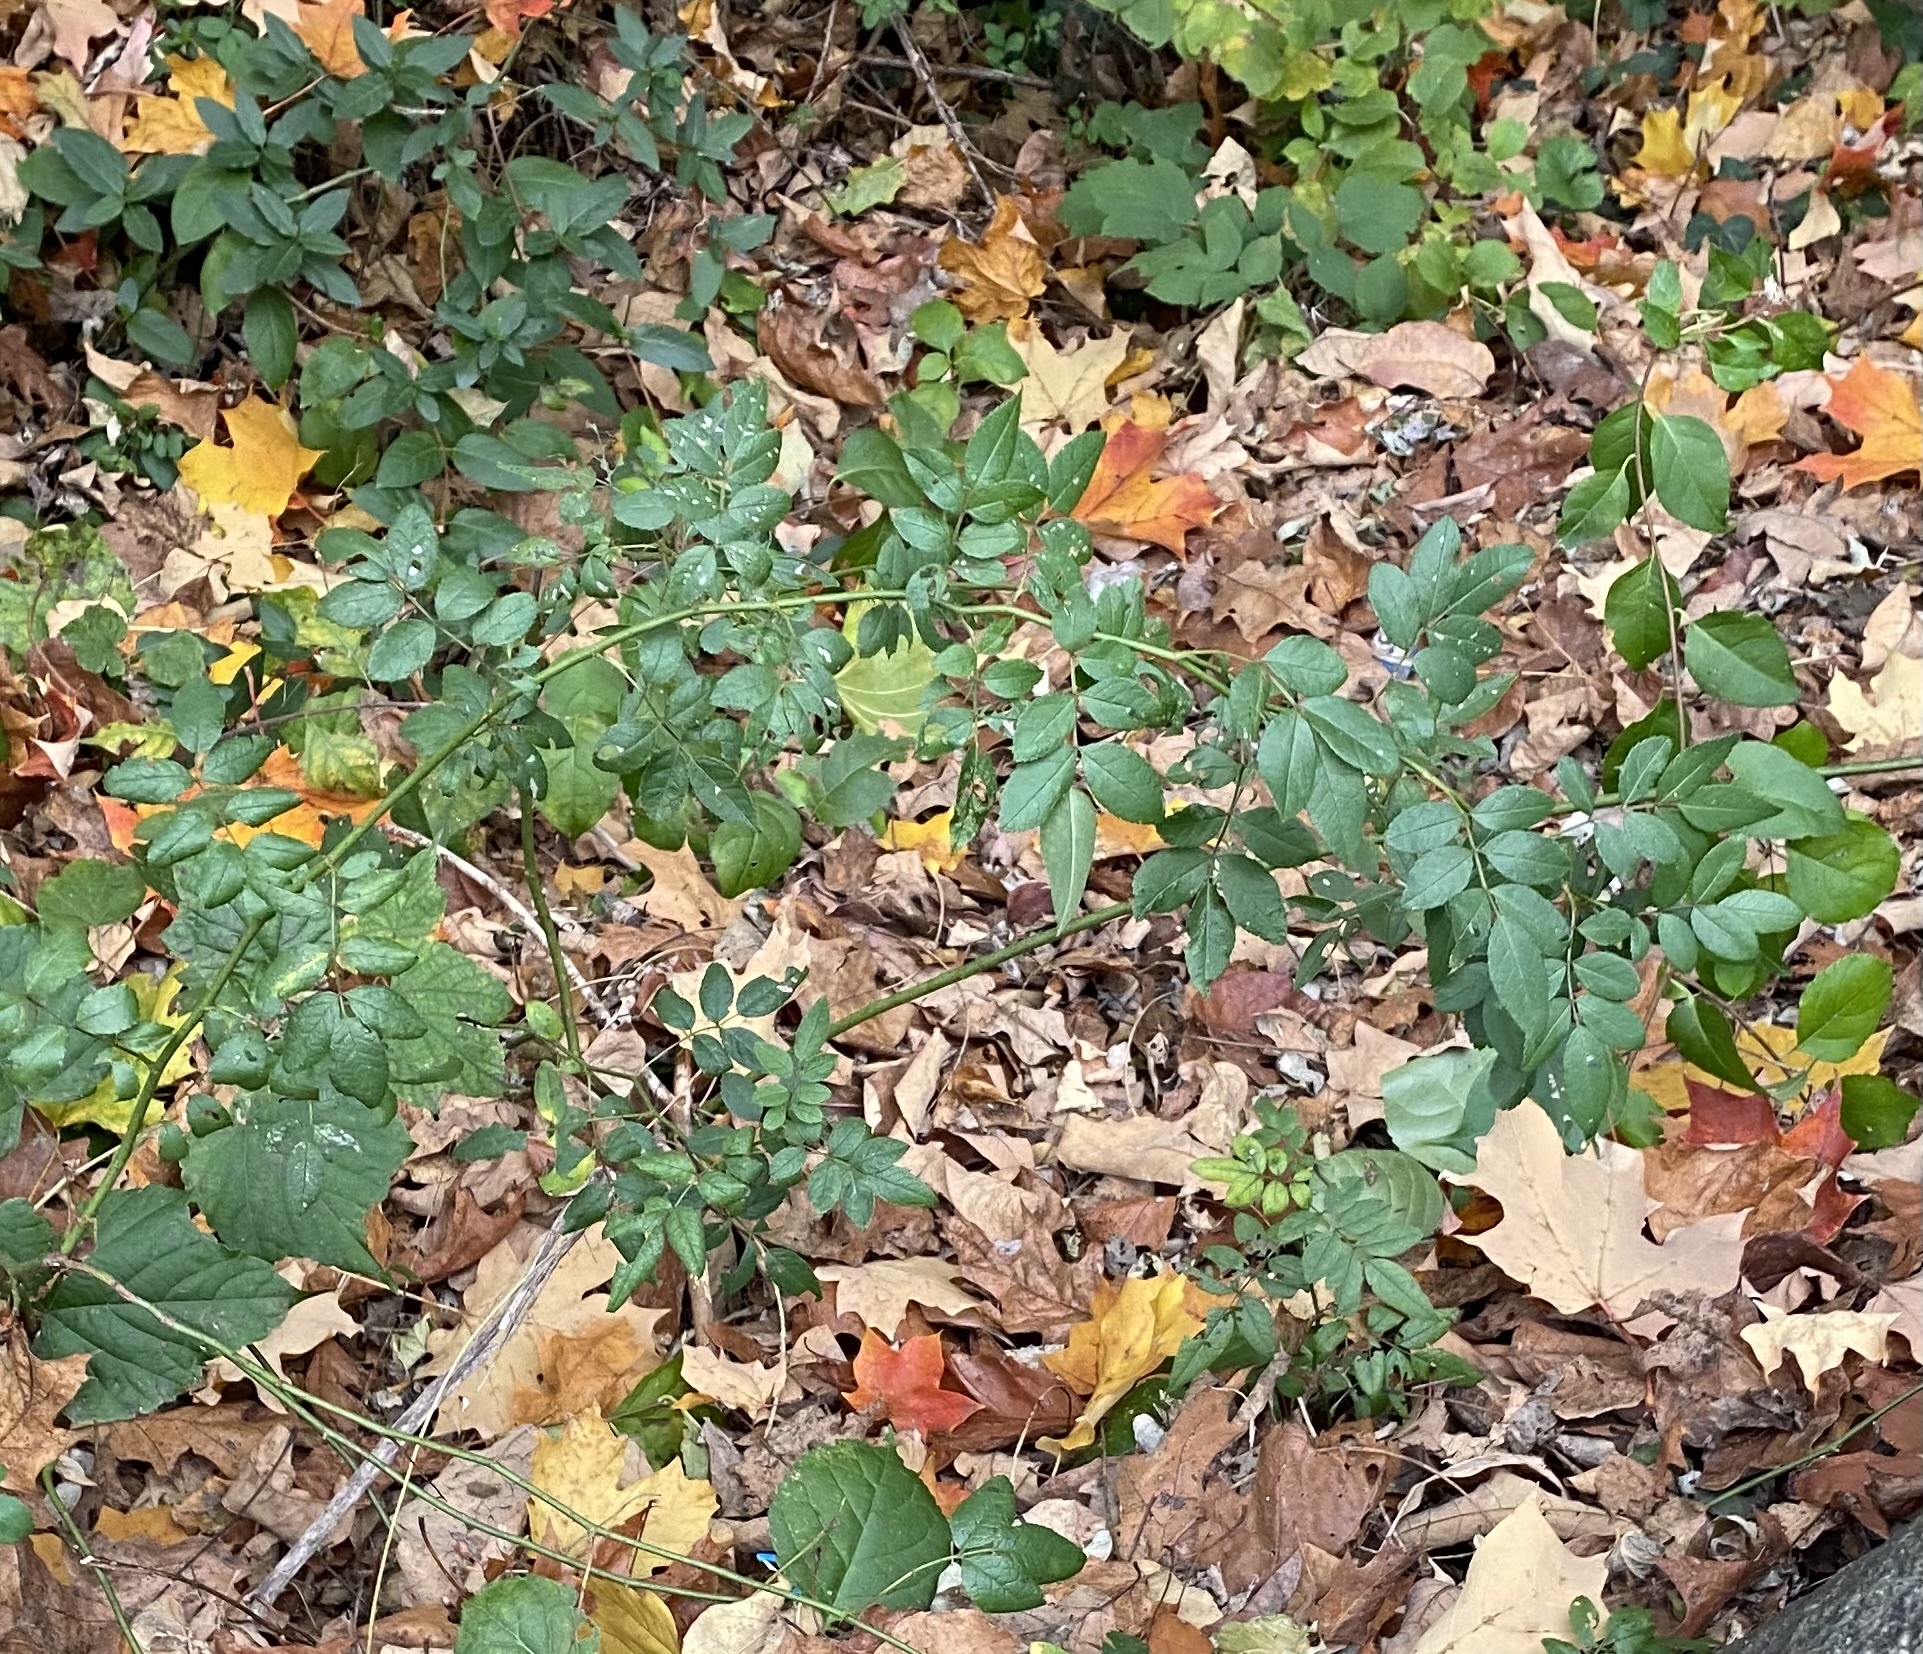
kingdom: Plantae
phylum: Tracheophyta
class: Magnoliopsida
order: Rosales
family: Rosaceae
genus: Rosa
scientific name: Rosa multiflora
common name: Multiflora rose
